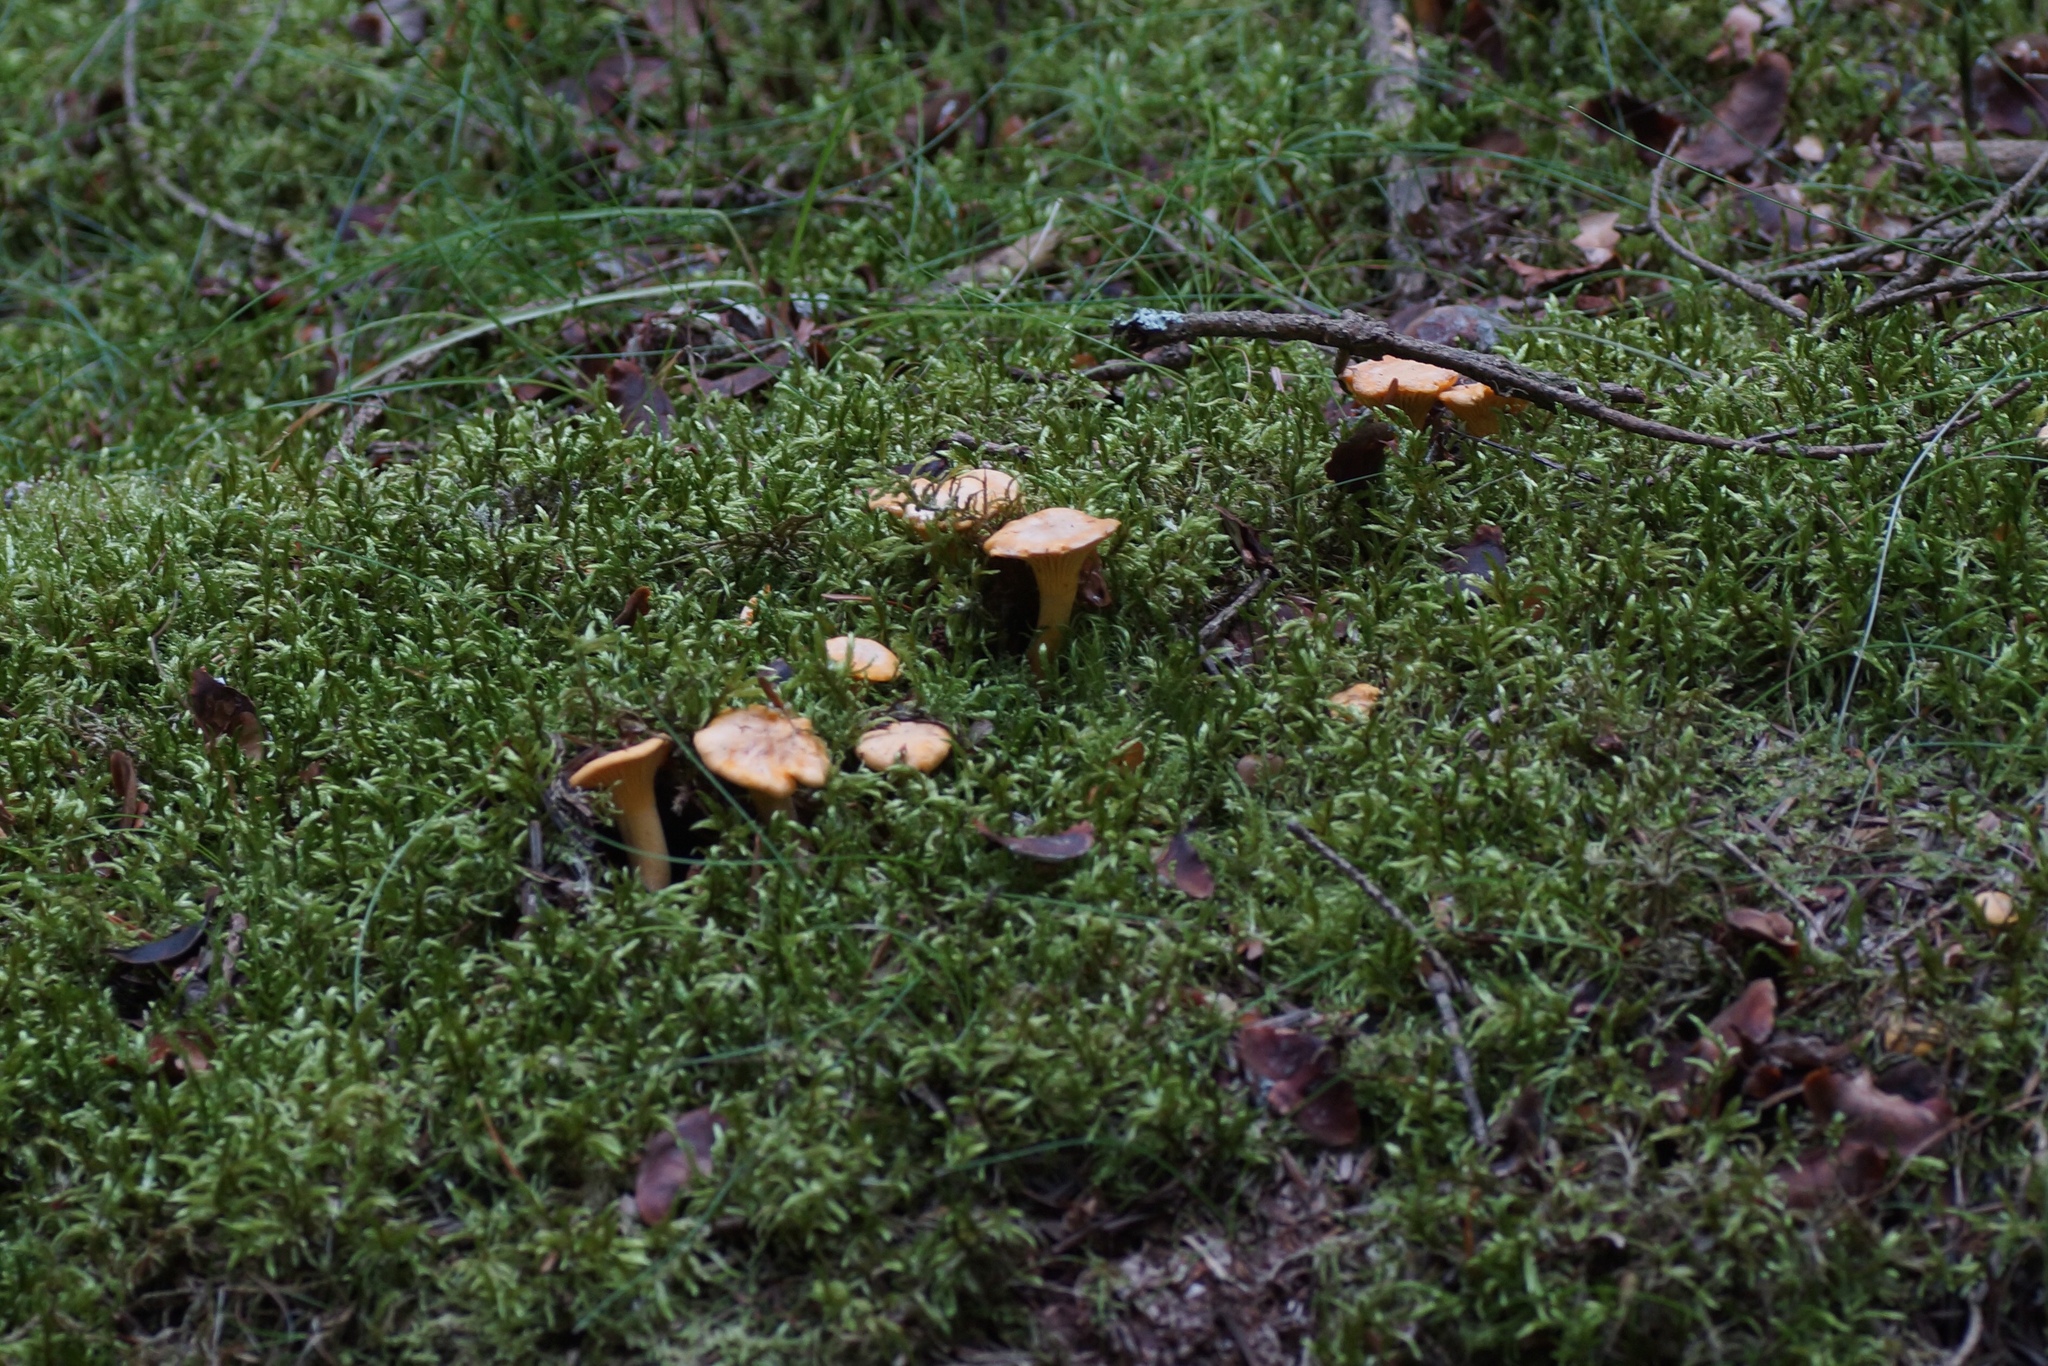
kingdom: Fungi
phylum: Basidiomycota
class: Agaricomycetes
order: Cantharellales
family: Hydnaceae
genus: Cantharellus
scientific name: Cantharellus cibarius
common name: Chanterelle
